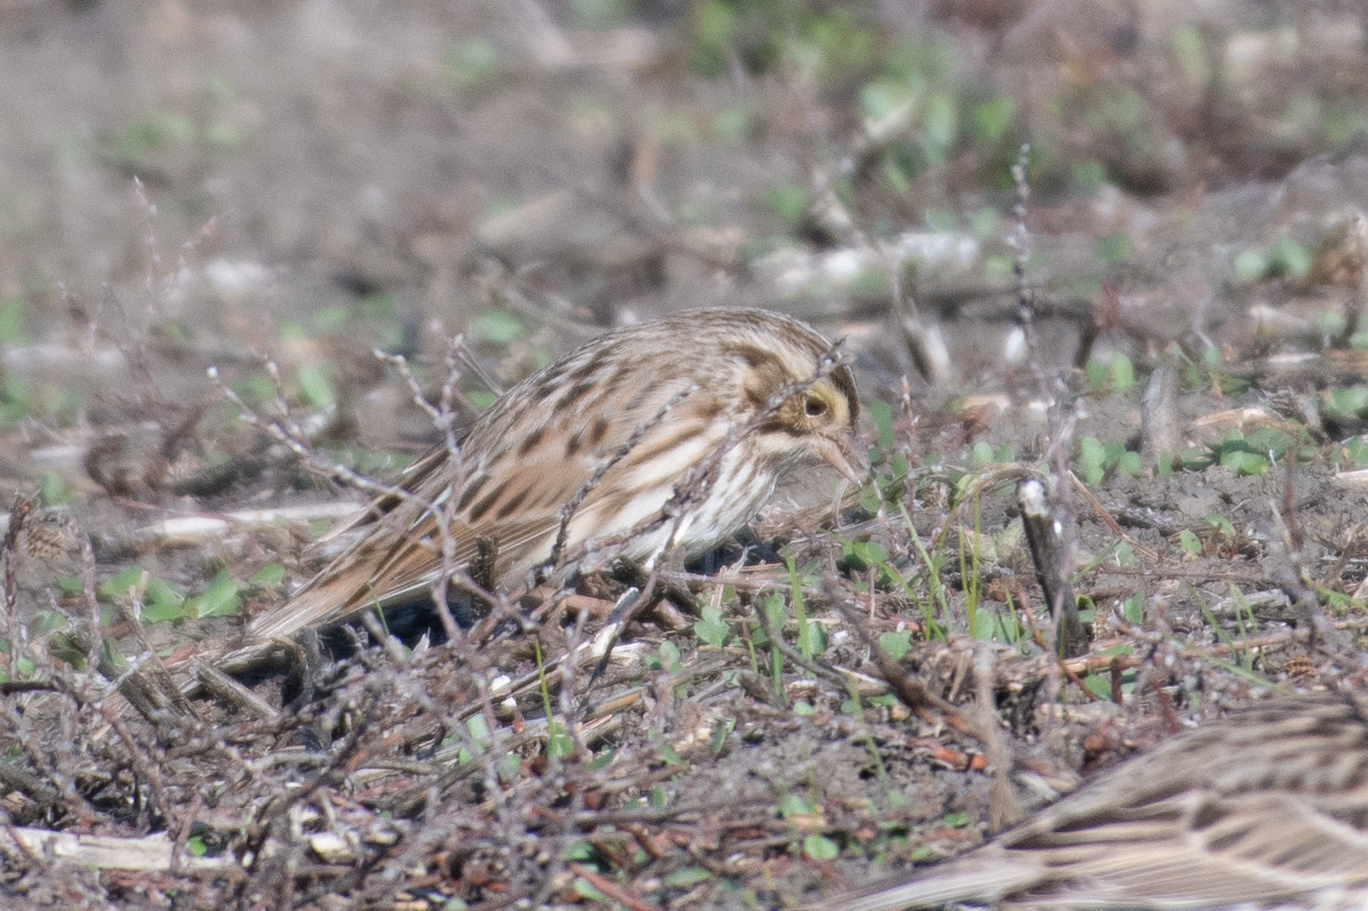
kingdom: Animalia
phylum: Chordata
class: Aves
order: Passeriformes
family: Passerellidae
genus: Passerculus
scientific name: Passerculus sandwichensis
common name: Savannah sparrow
